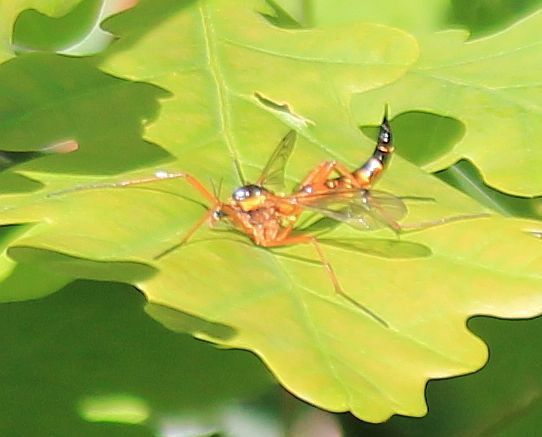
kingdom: Animalia
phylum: Arthropoda
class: Insecta
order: Diptera
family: Tipulidae
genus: Ctenophora
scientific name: Ctenophora pectinicornis
